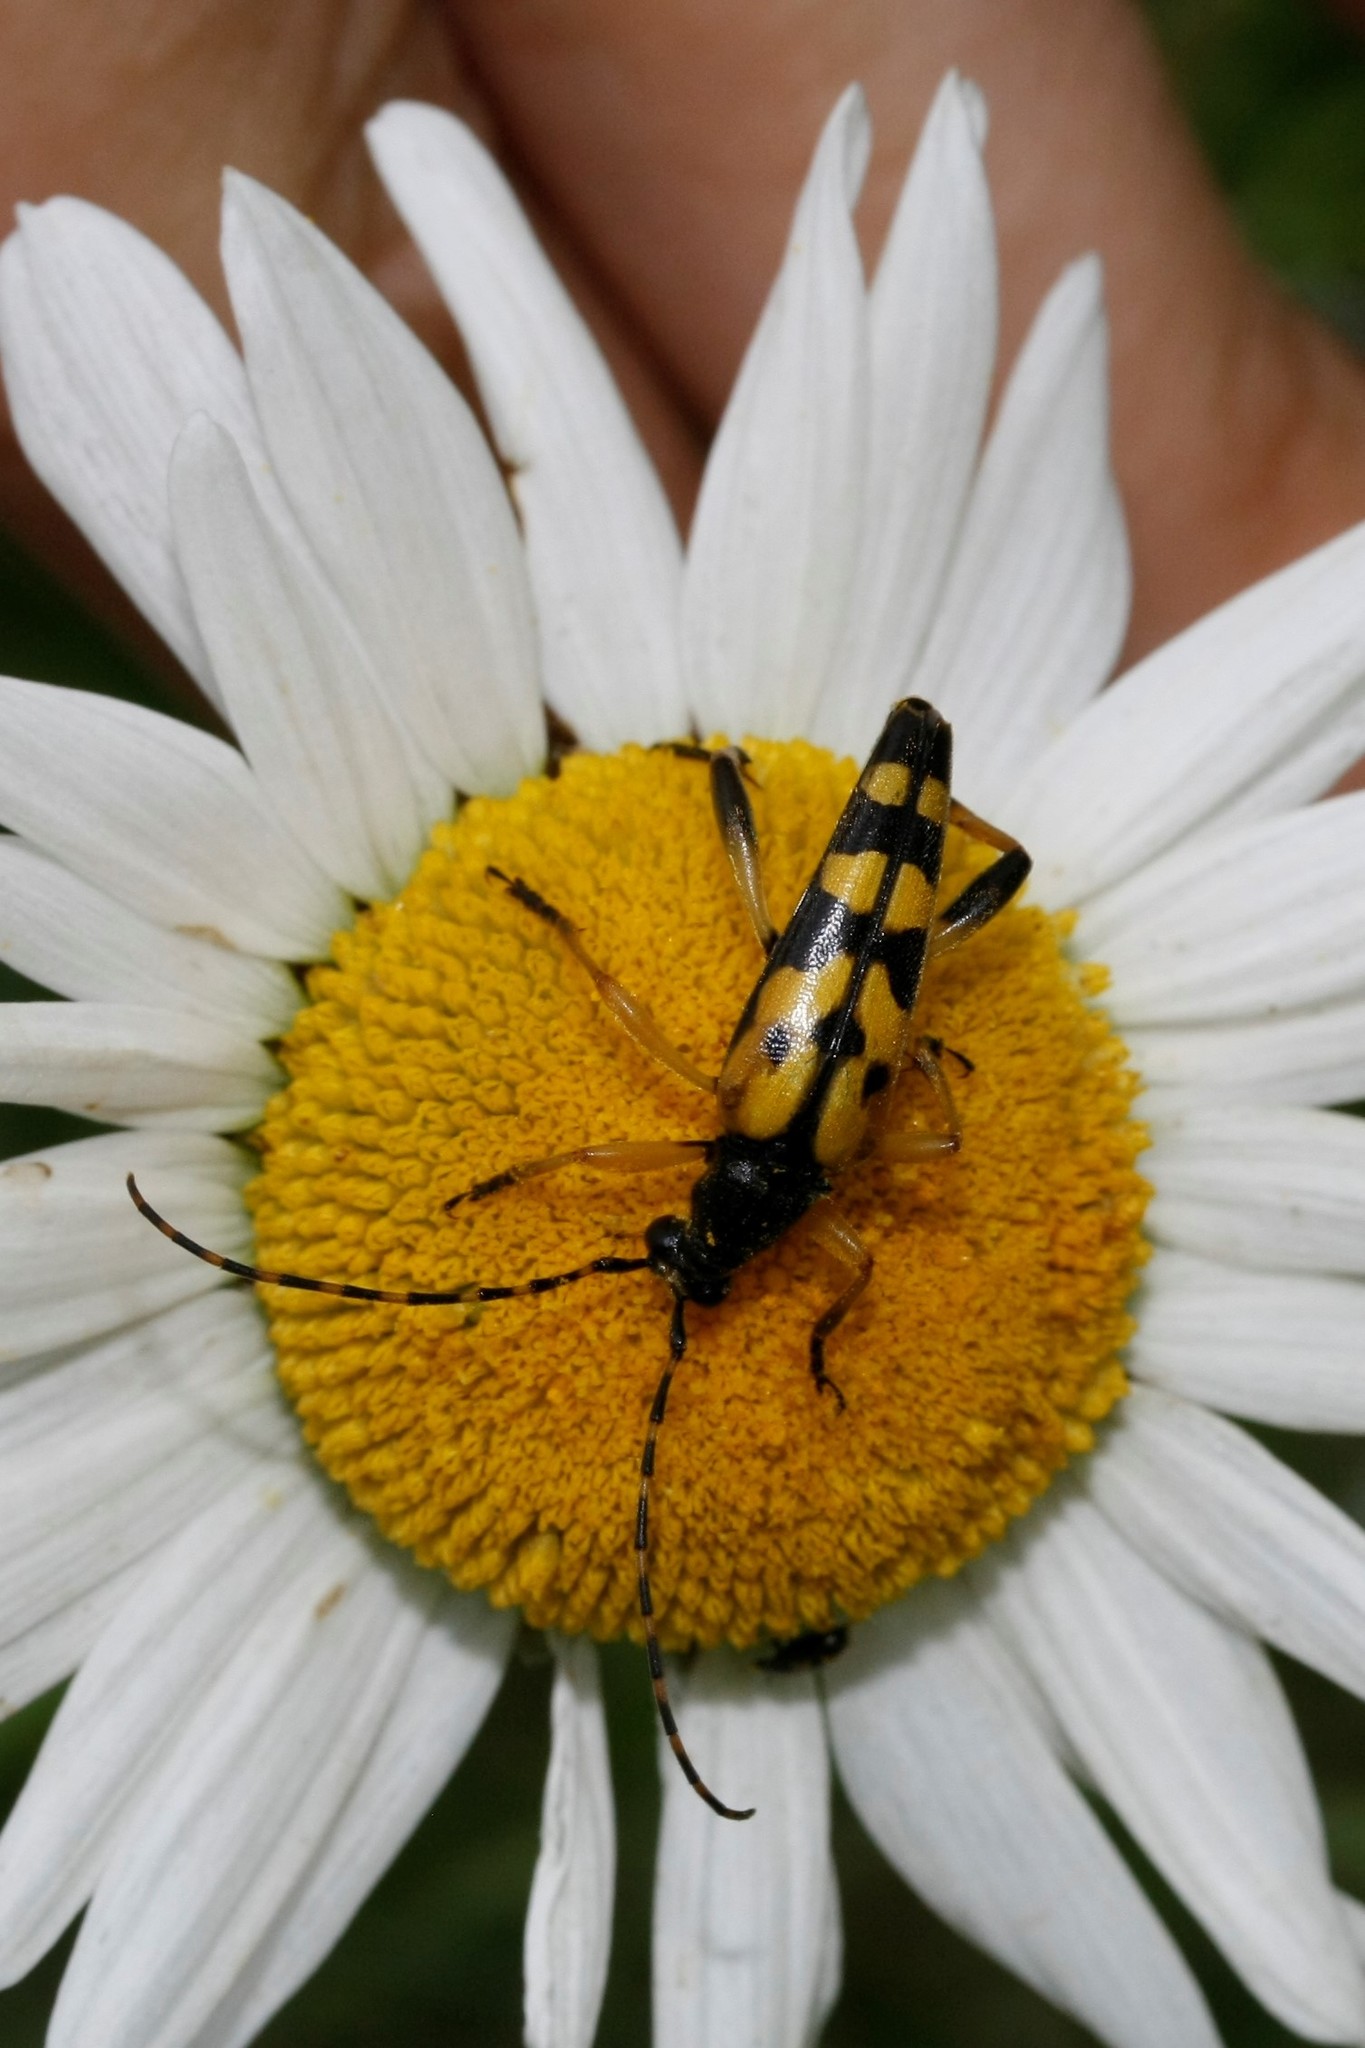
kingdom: Animalia
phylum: Arthropoda
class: Insecta
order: Coleoptera
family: Cerambycidae
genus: Rutpela
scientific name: Rutpela maculata
